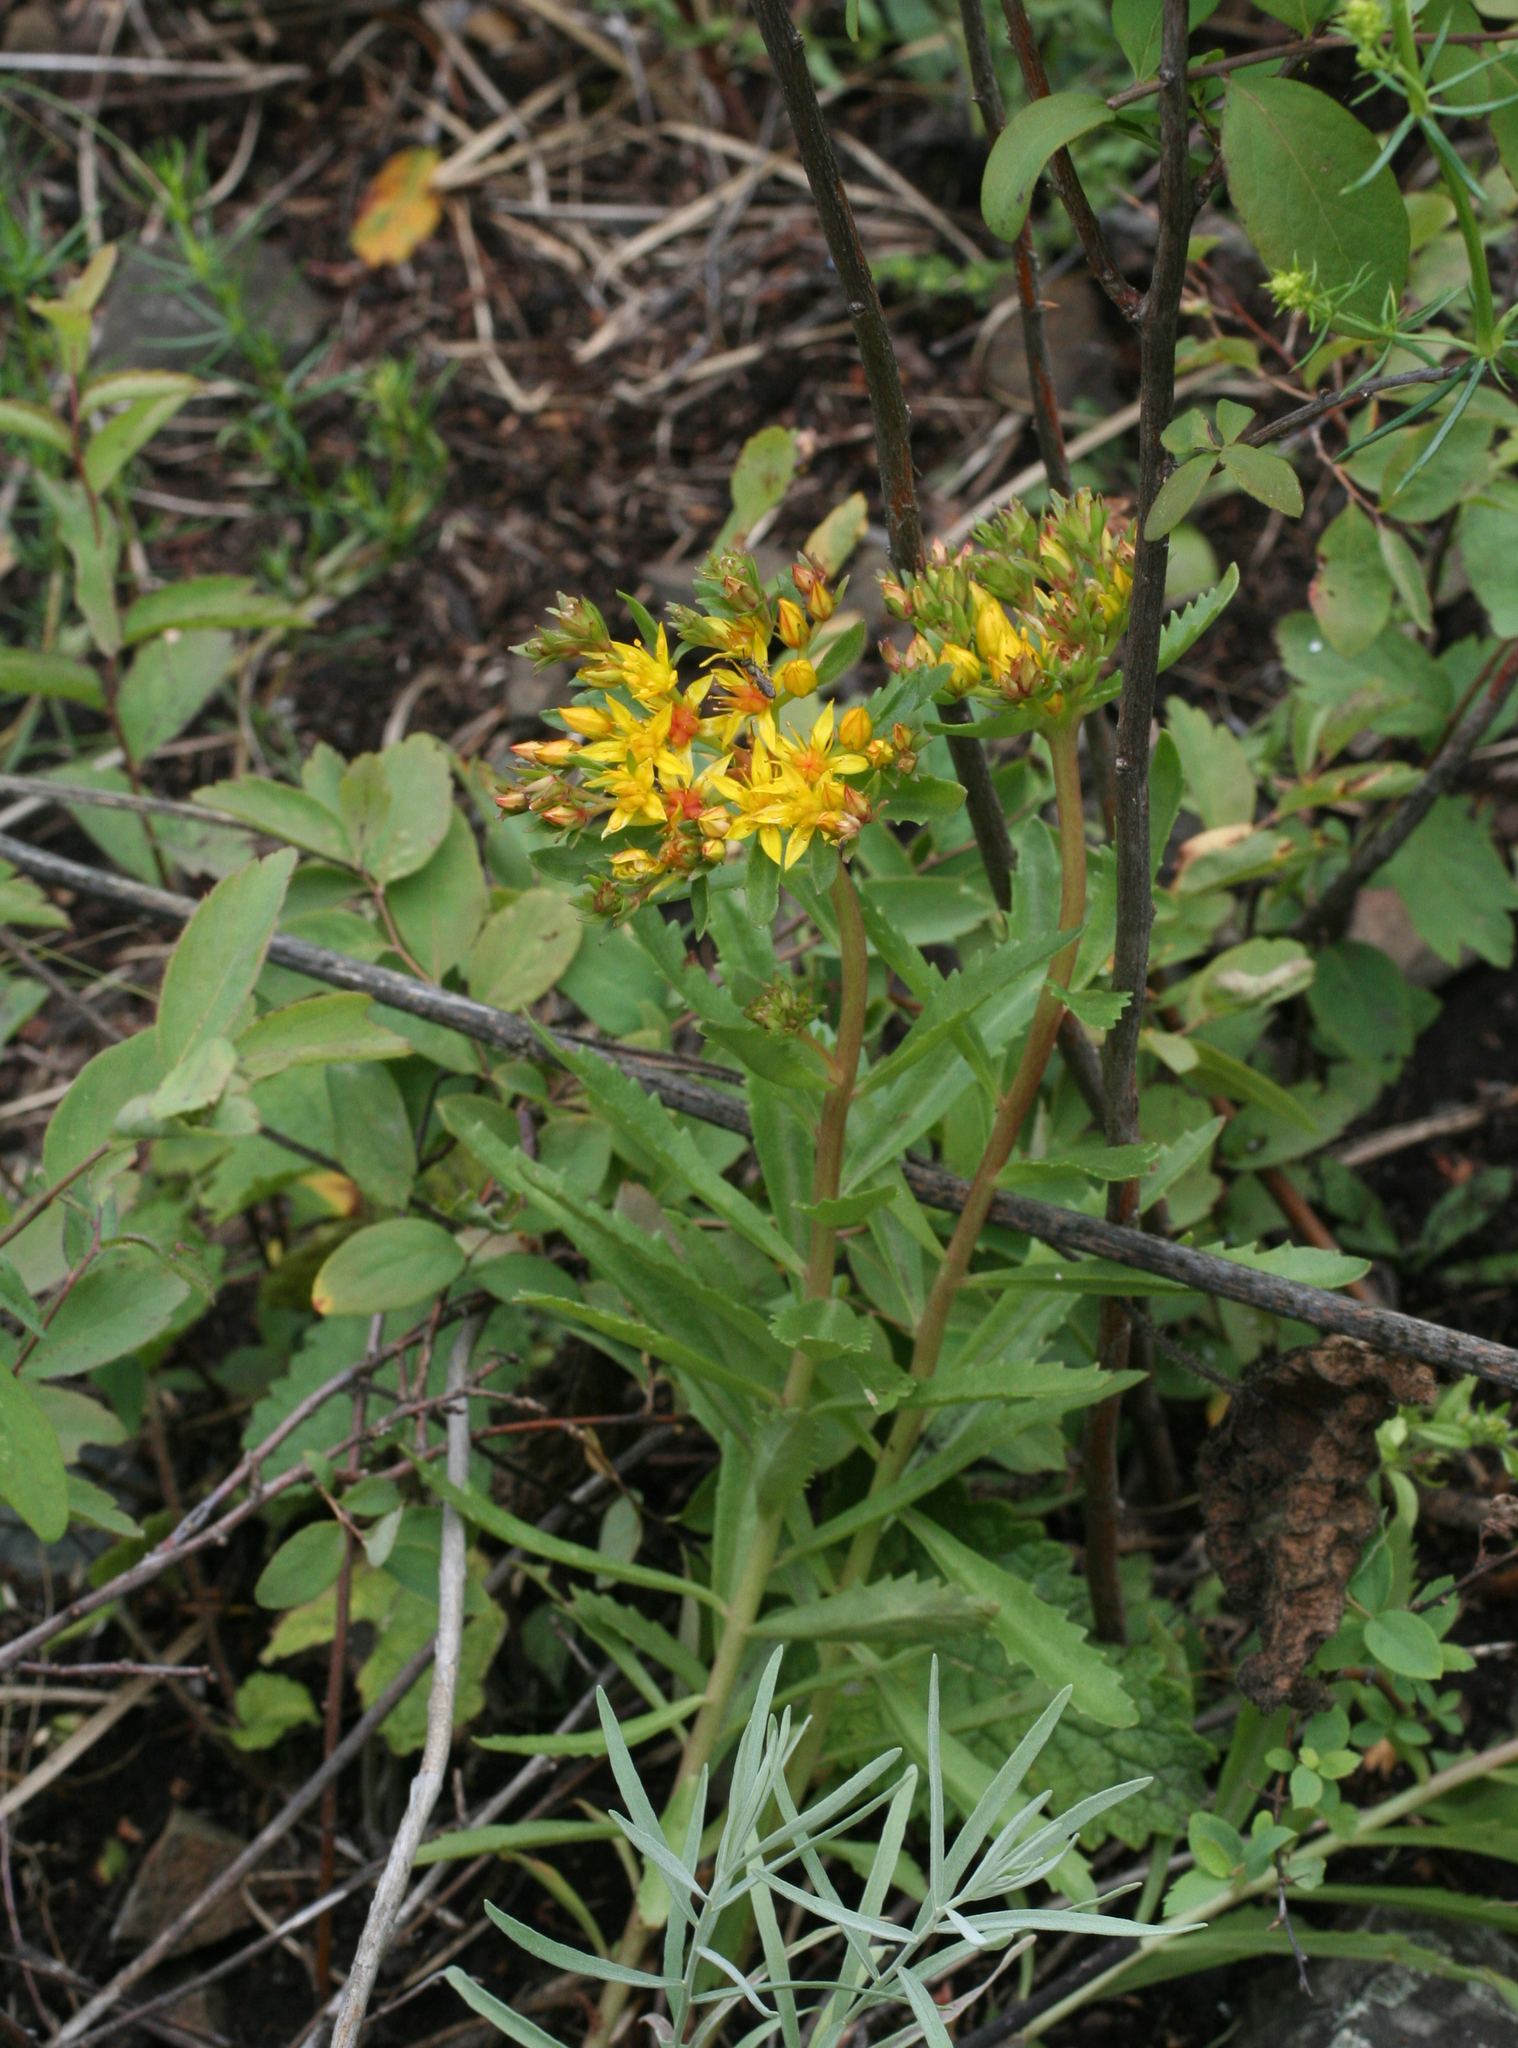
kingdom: Plantae
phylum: Tracheophyta
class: Magnoliopsida
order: Saxifragales
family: Crassulaceae
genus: Phedimus
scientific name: Phedimus aizoon
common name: Orpin aizoon
